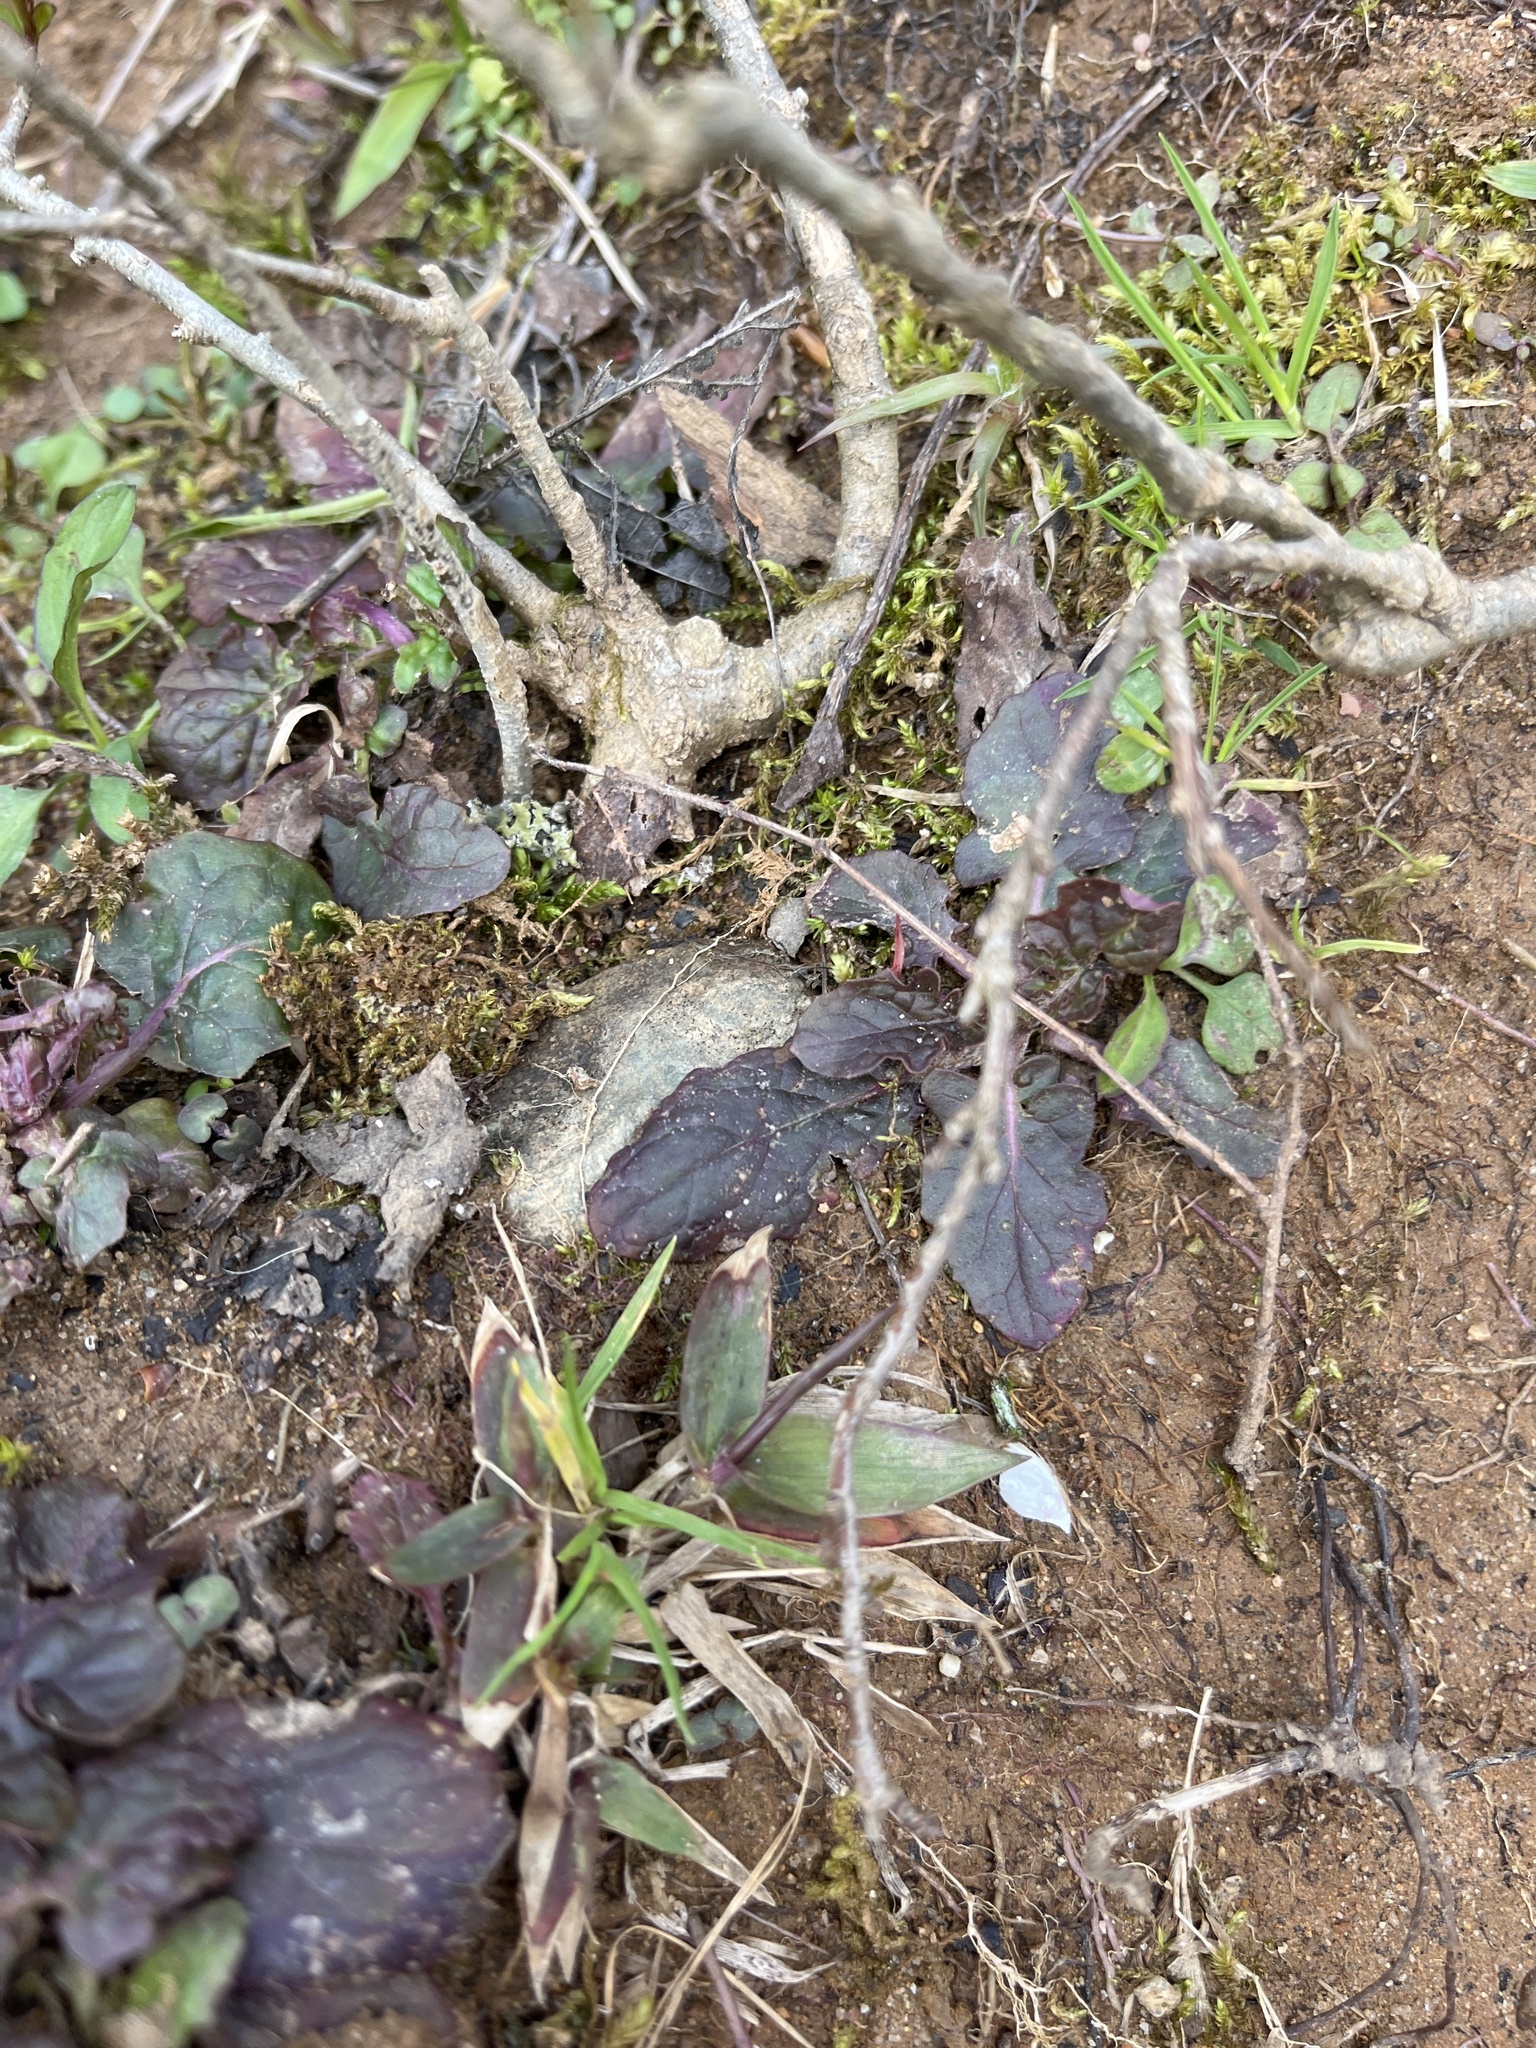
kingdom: Plantae
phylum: Tracheophyta
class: Magnoliopsida
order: Lamiales
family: Lamiaceae
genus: Salvia
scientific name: Salvia lyrata
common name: Cancerweed
